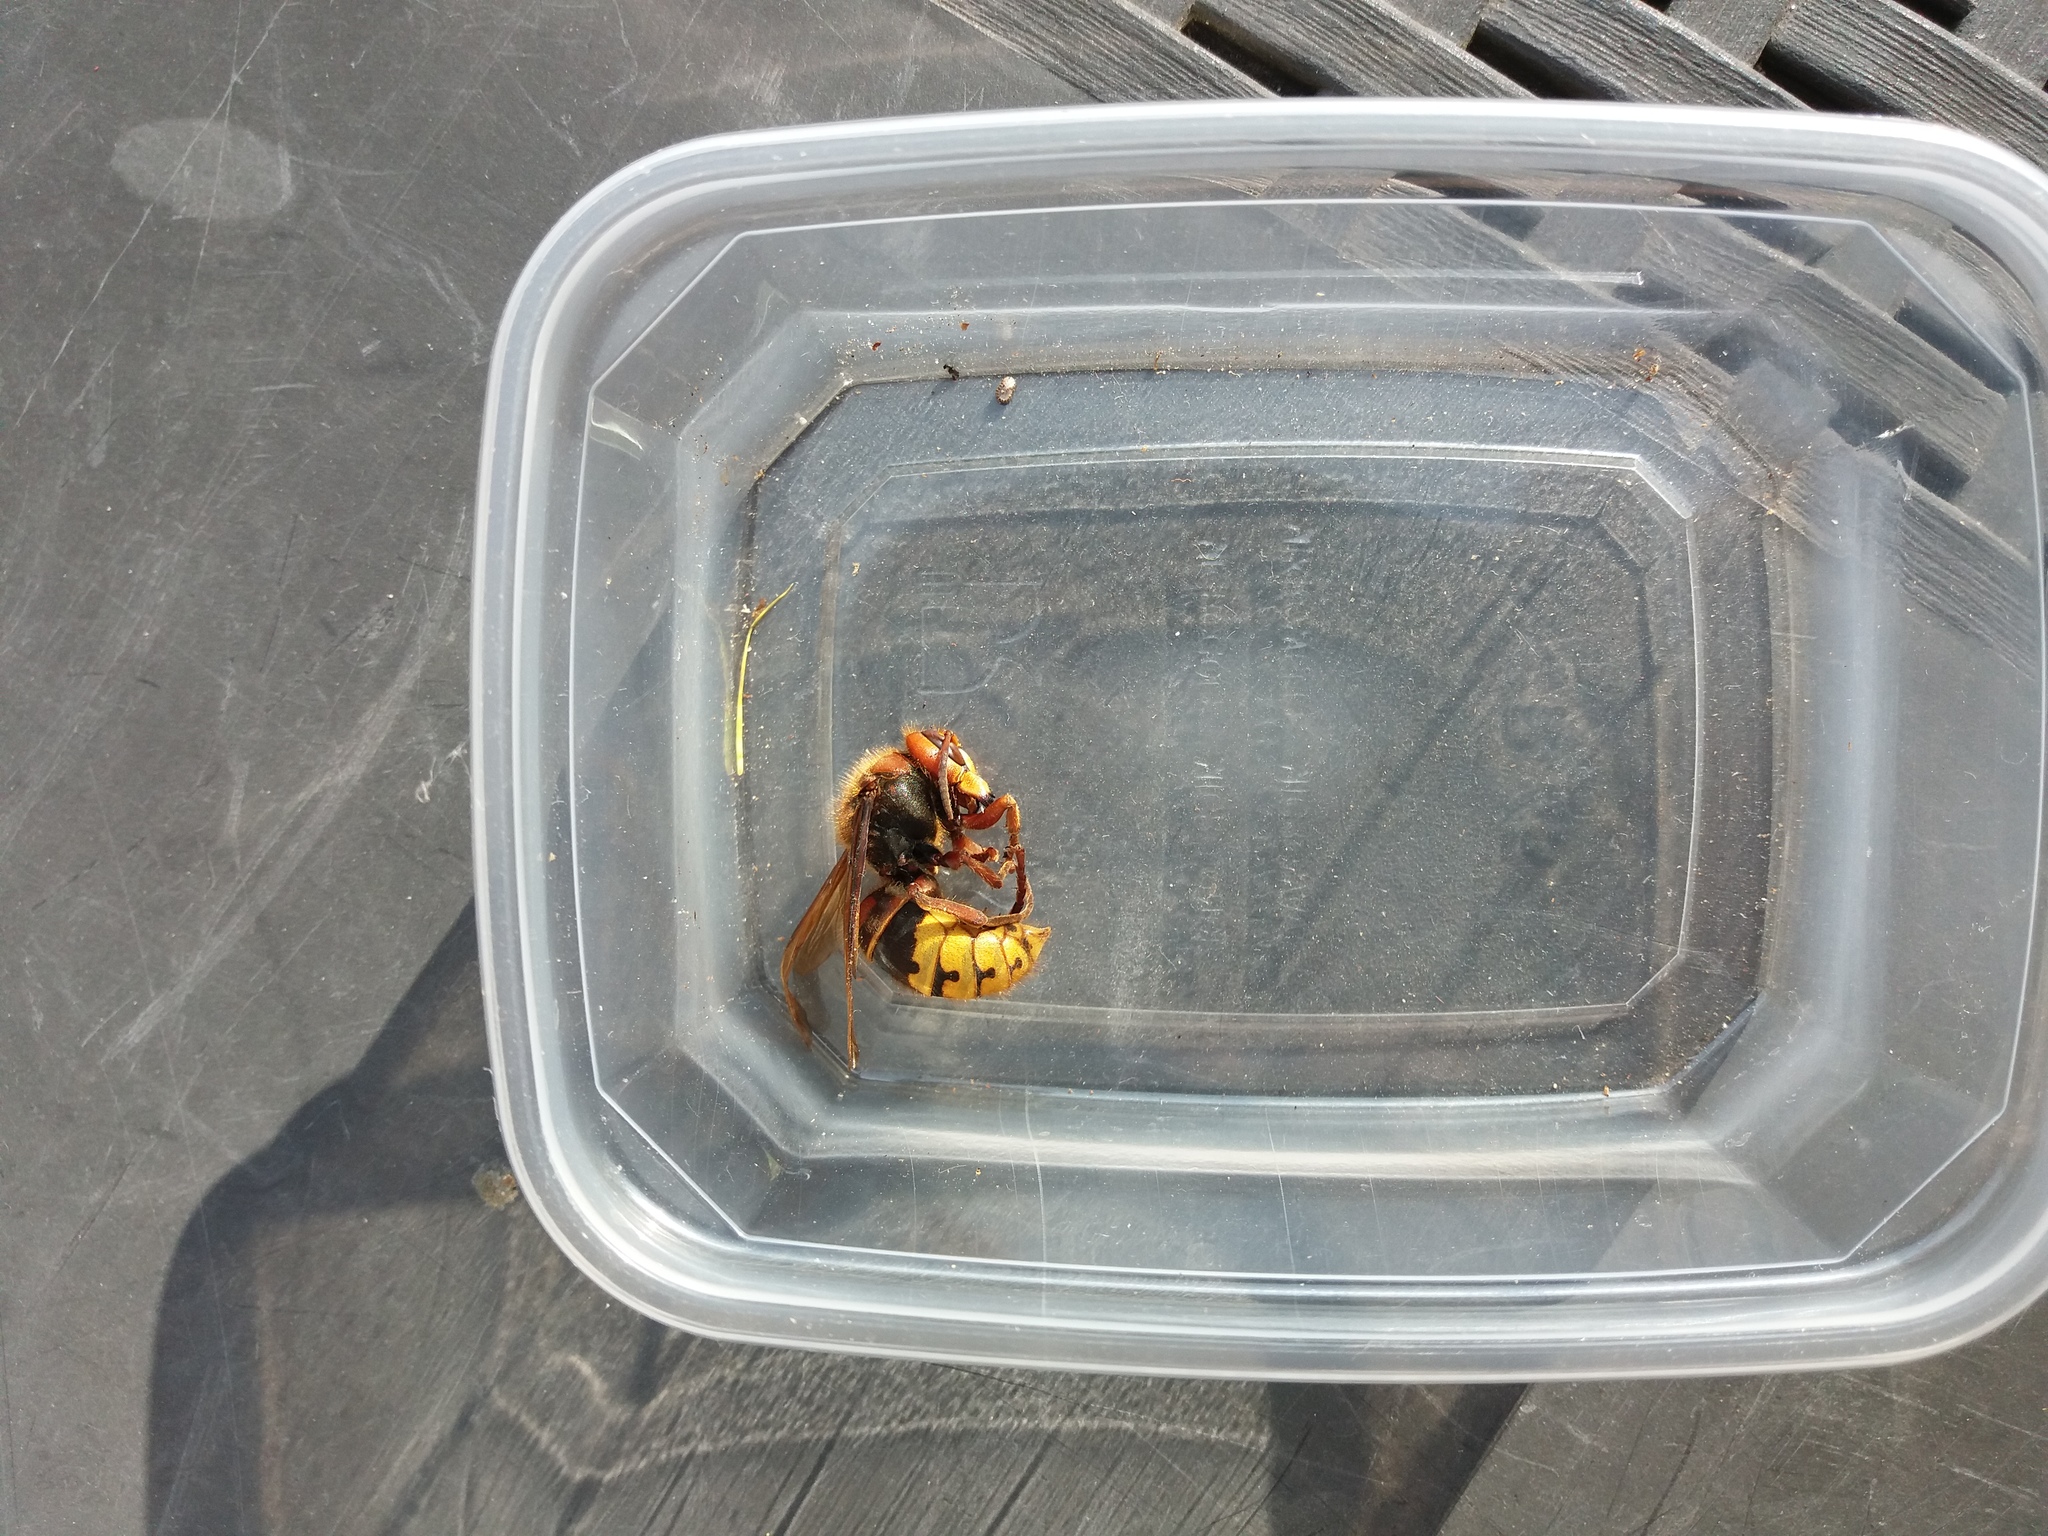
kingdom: Animalia
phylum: Arthropoda
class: Insecta
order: Hymenoptera
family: Vespidae
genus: Vespa
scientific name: Vespa crabro
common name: Hornet
